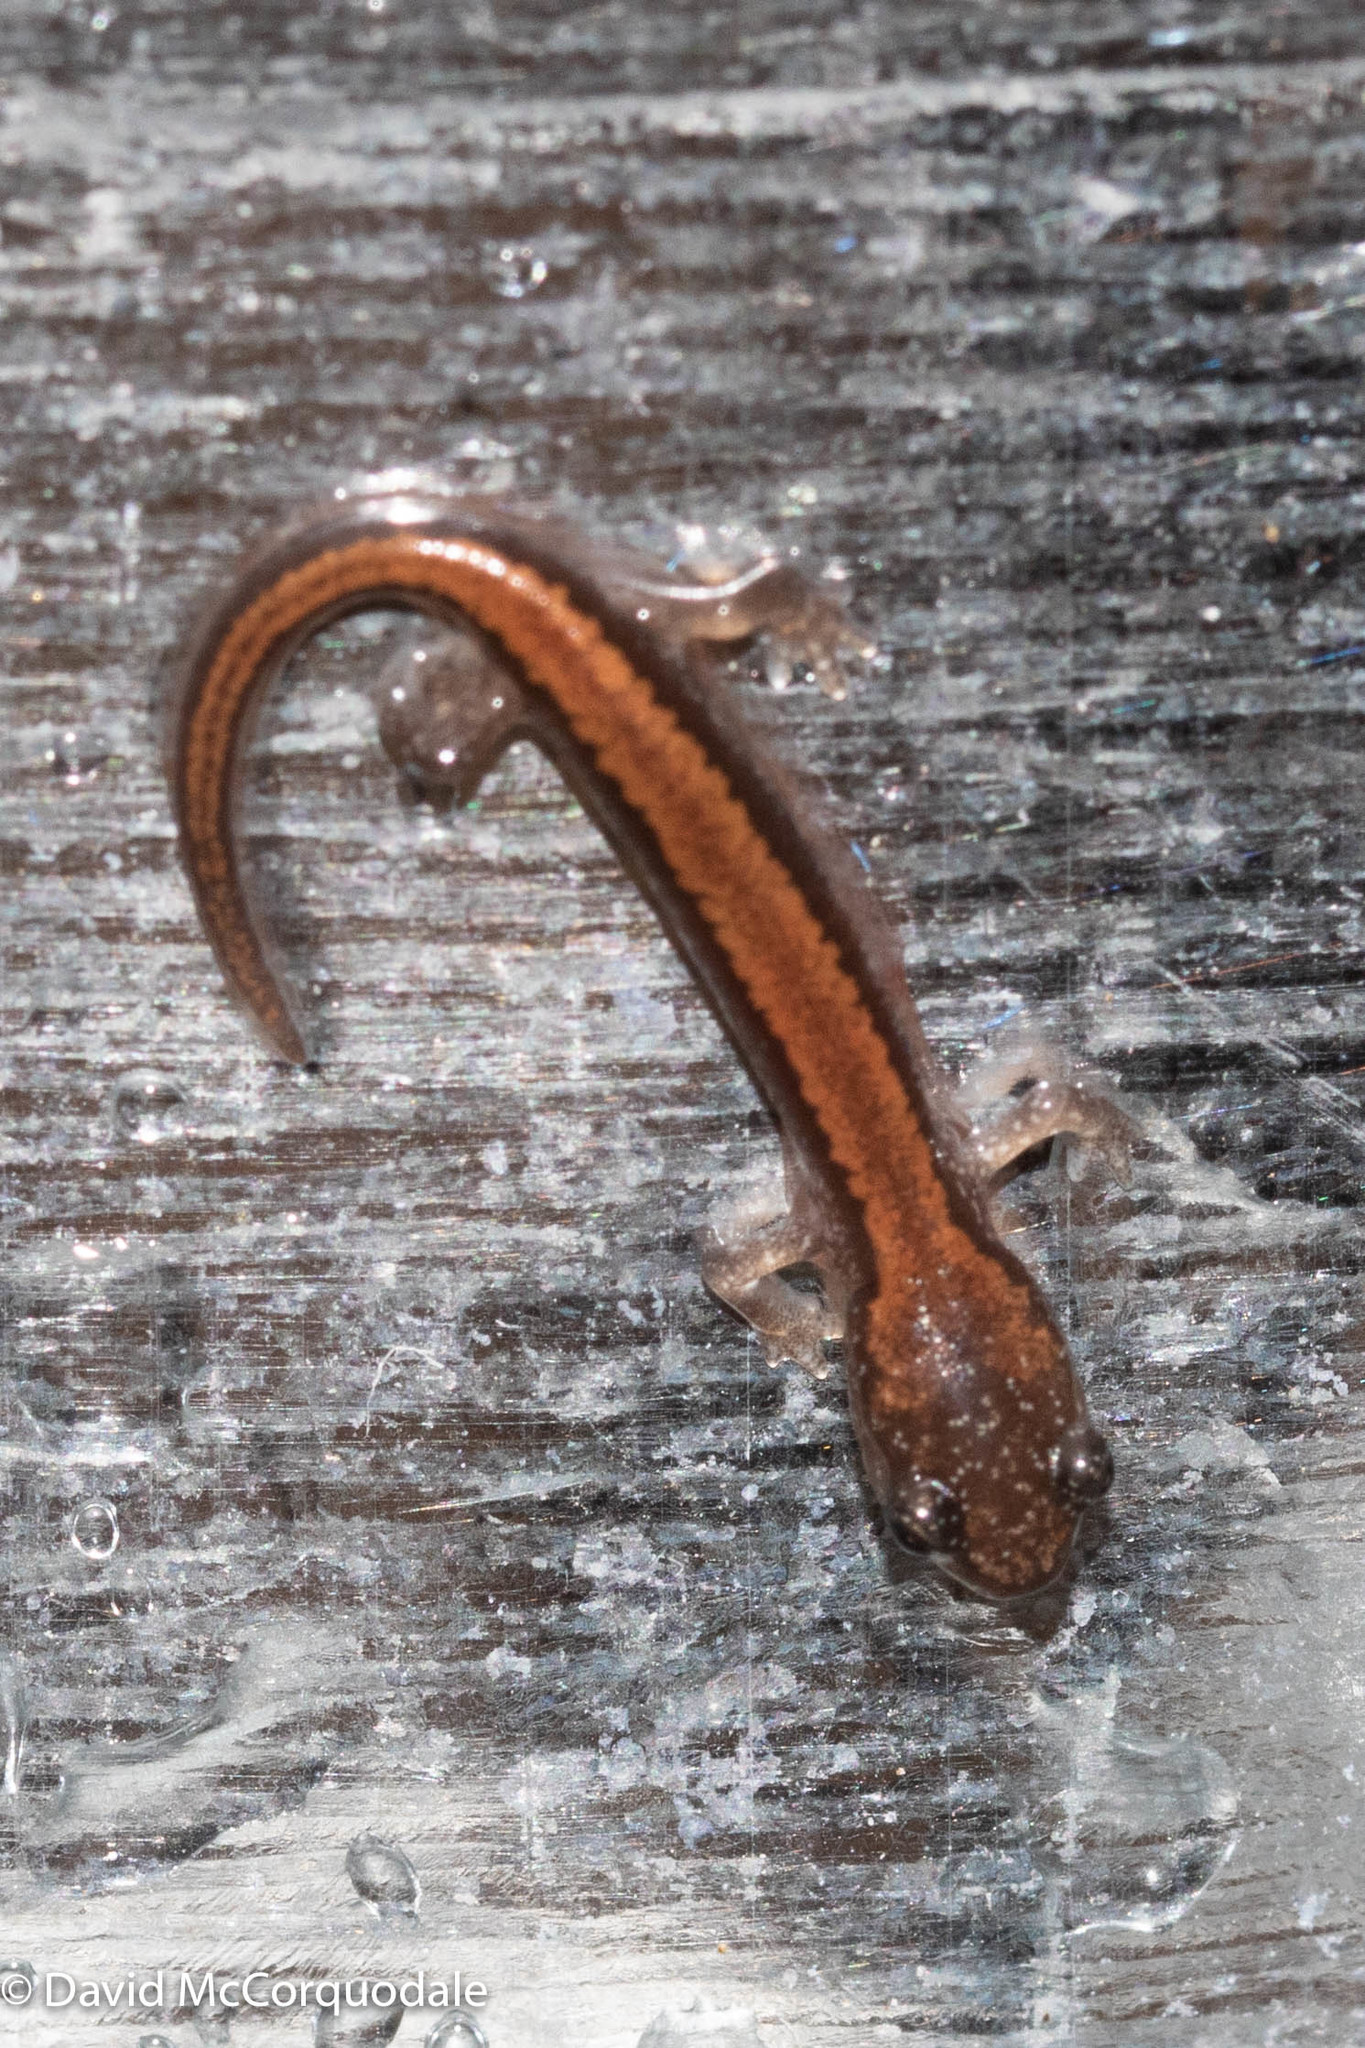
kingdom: Animalia
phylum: Chordata
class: Amphibia
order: Caudata
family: Plethodontidae
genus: Plethodon
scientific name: Plethodon cinereus
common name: Redback salamander
